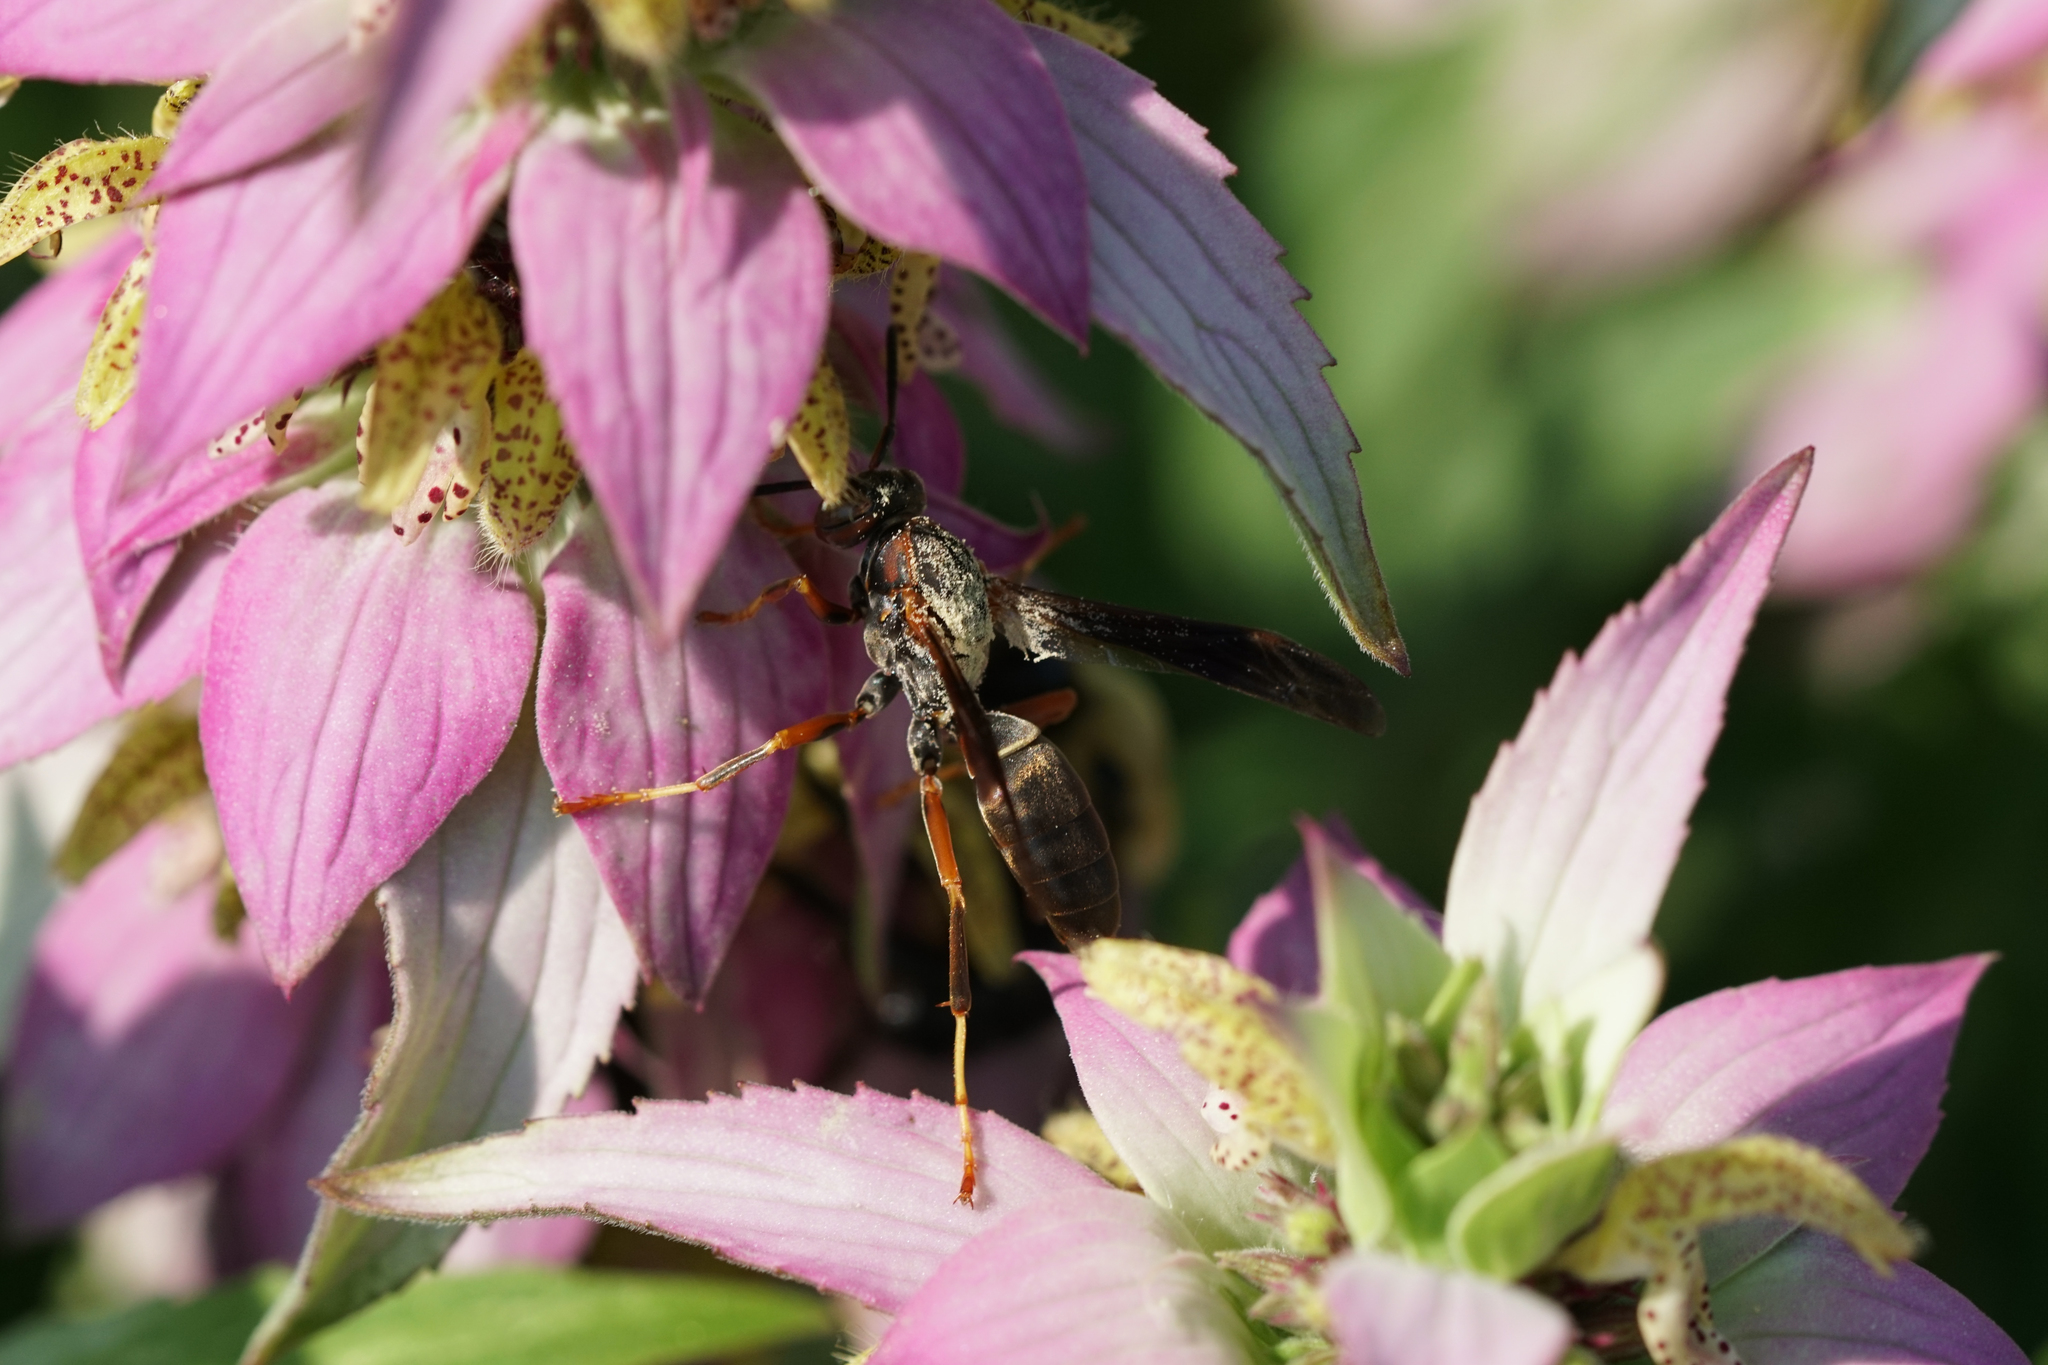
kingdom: Animalia
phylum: Arthropoda
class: Insecta
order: Hymenoptera
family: Eumenidae
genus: Polistes
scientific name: Polistes fuscatus
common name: Dark paper wasp
